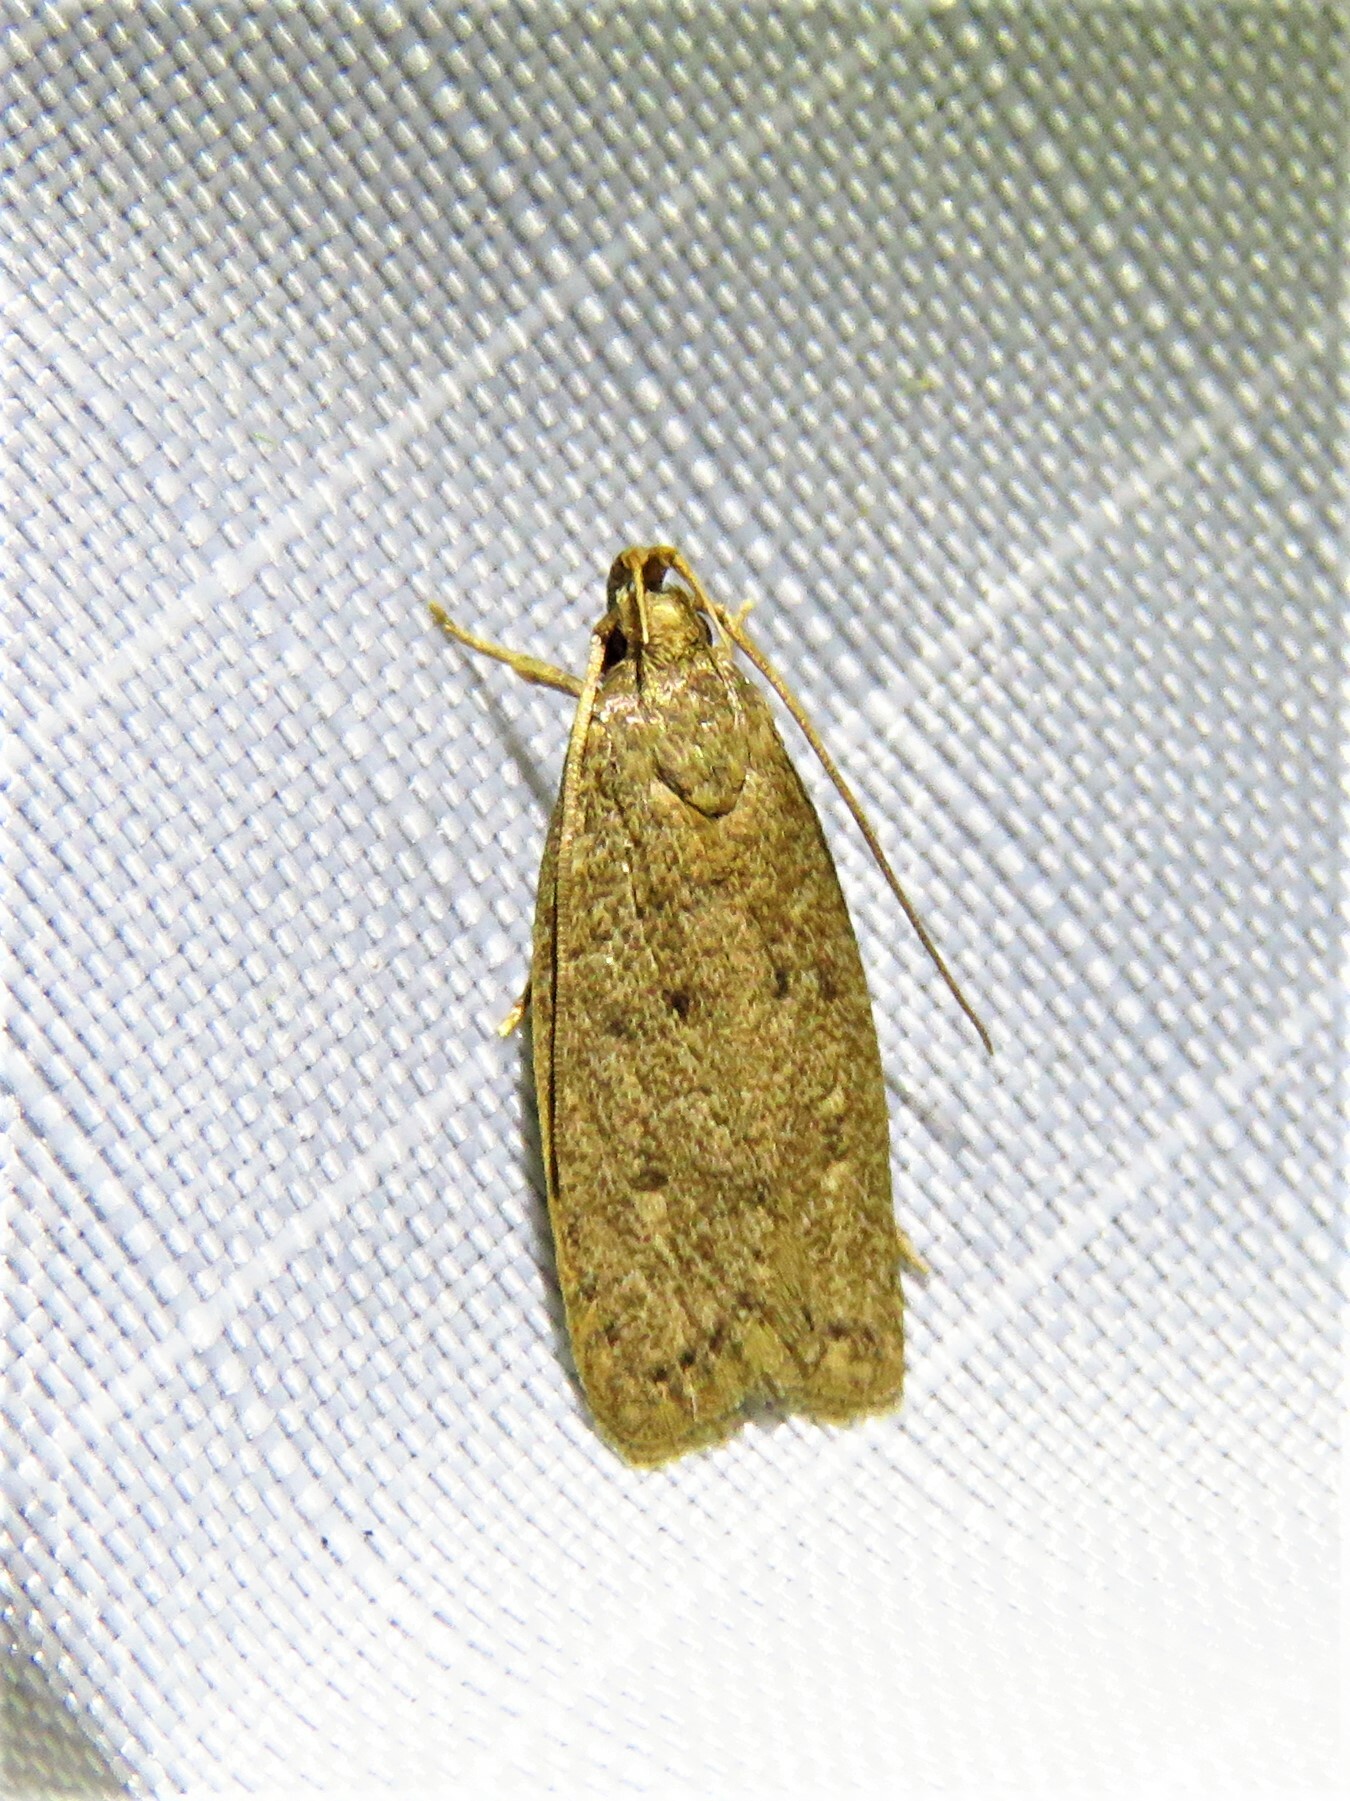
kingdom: Animalia
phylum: Arthropoda
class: Insecta
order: Lepidoptera
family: Autostichidae
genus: Autosticha
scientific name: Autosticha kyotensis
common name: Kyoto moth
